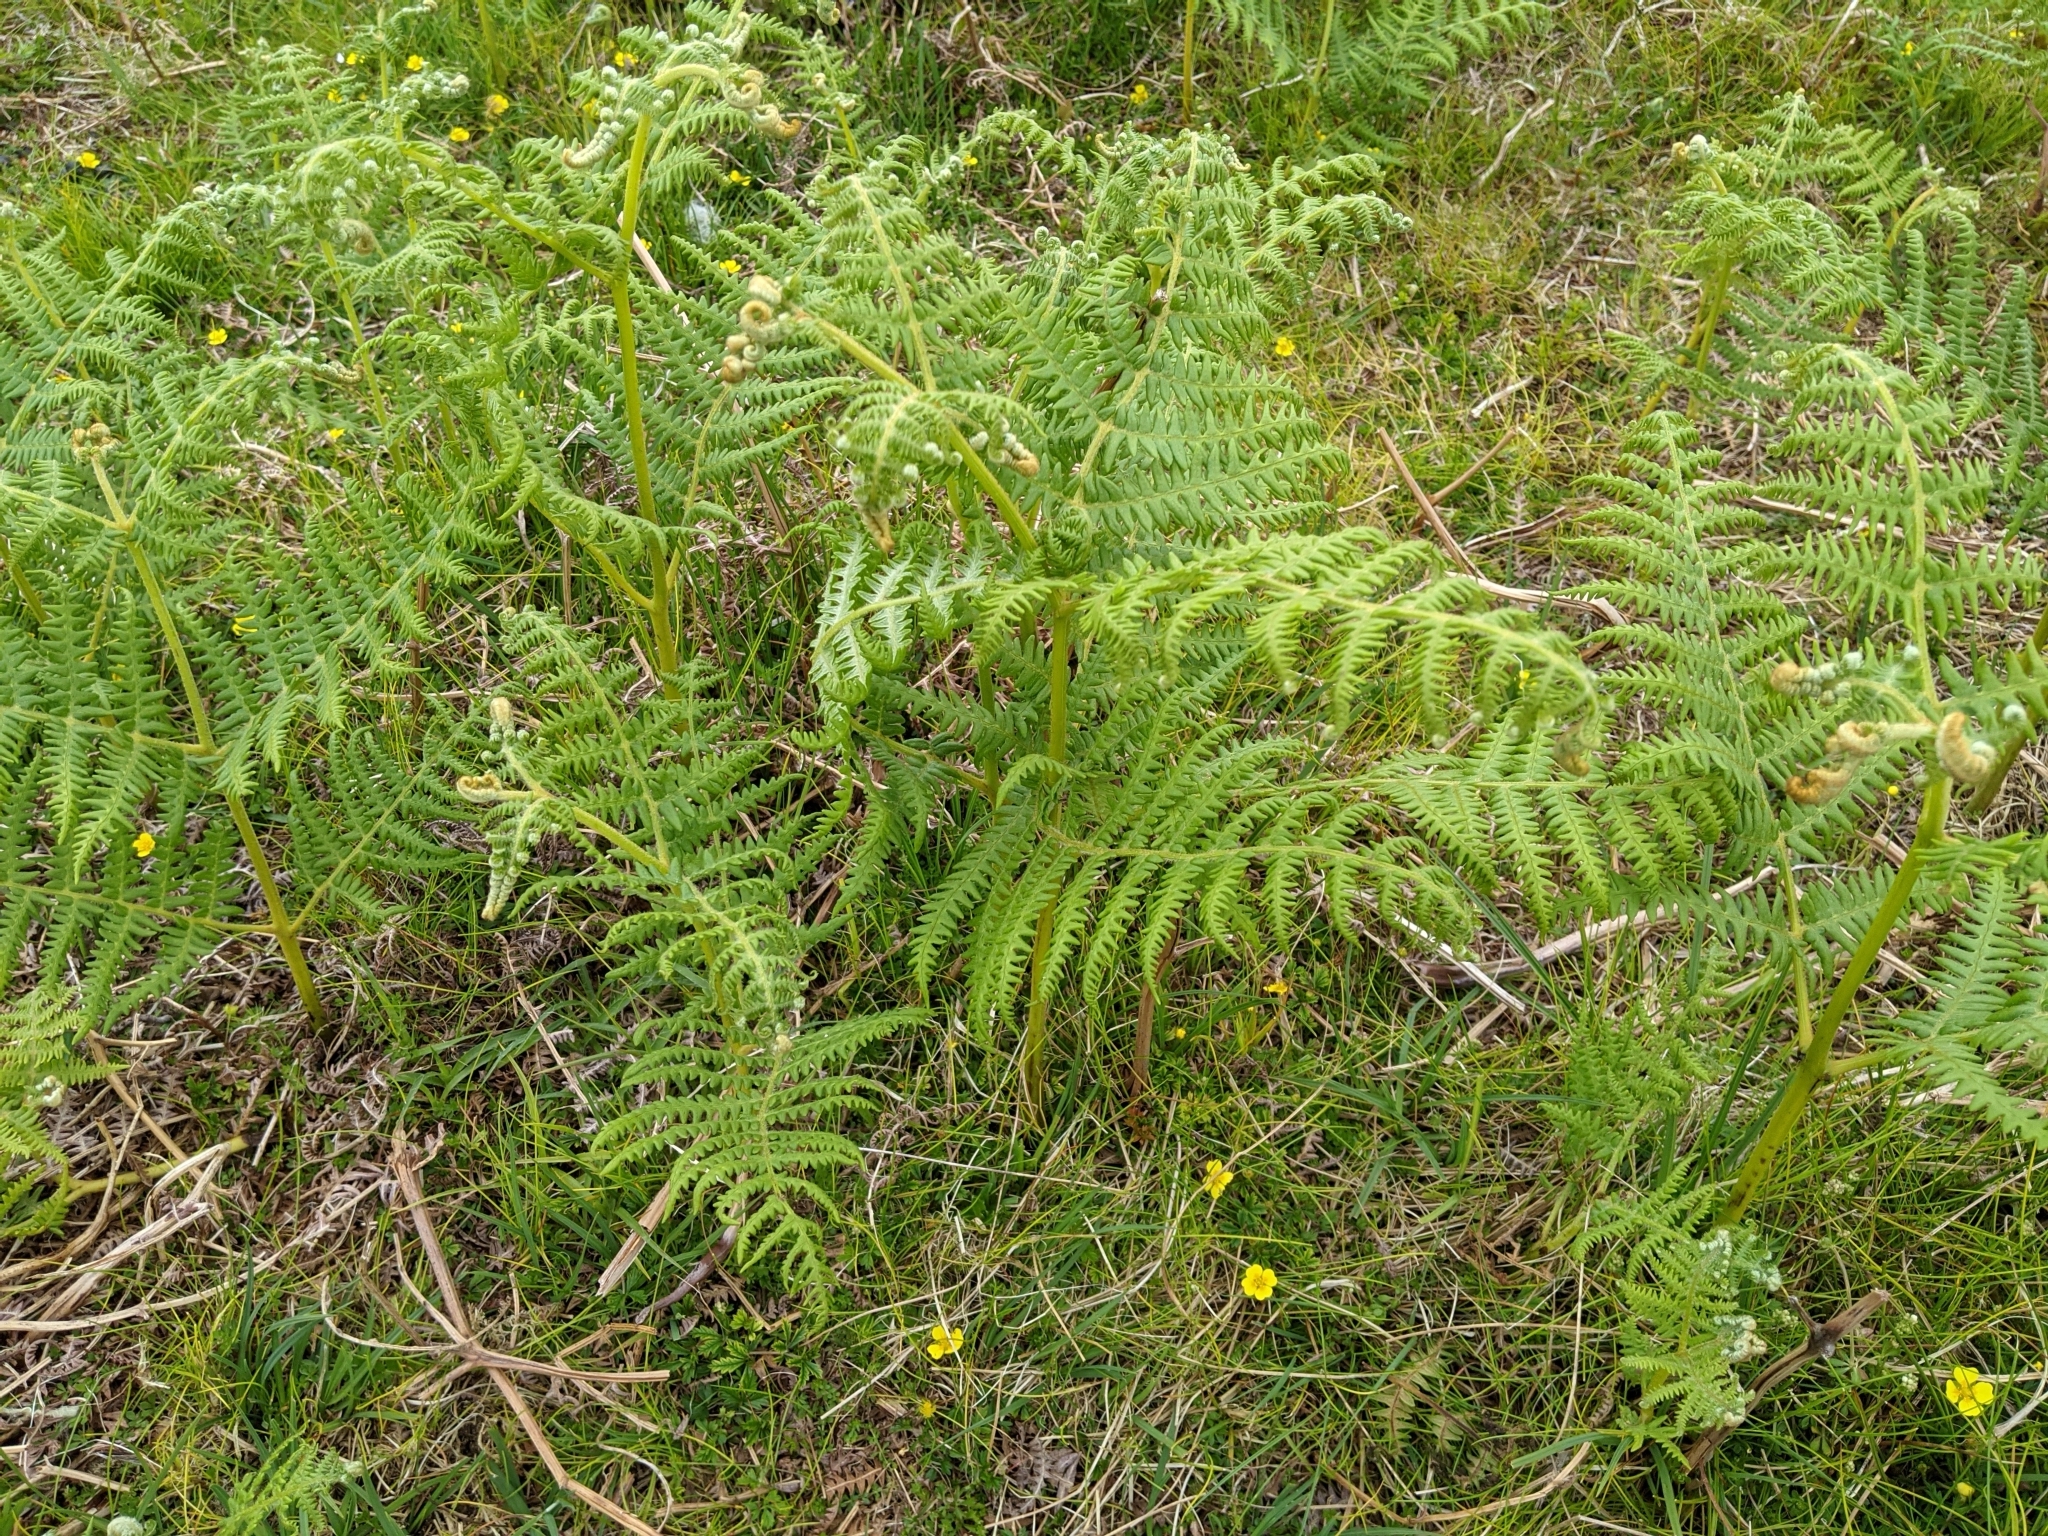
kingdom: Plantae
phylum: Tracheophyta
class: Polypodiopsida
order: Polypodiales
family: Dennstaedtiaceae
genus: Pteridium
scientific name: Pteridium aquilinum
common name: Bracken
